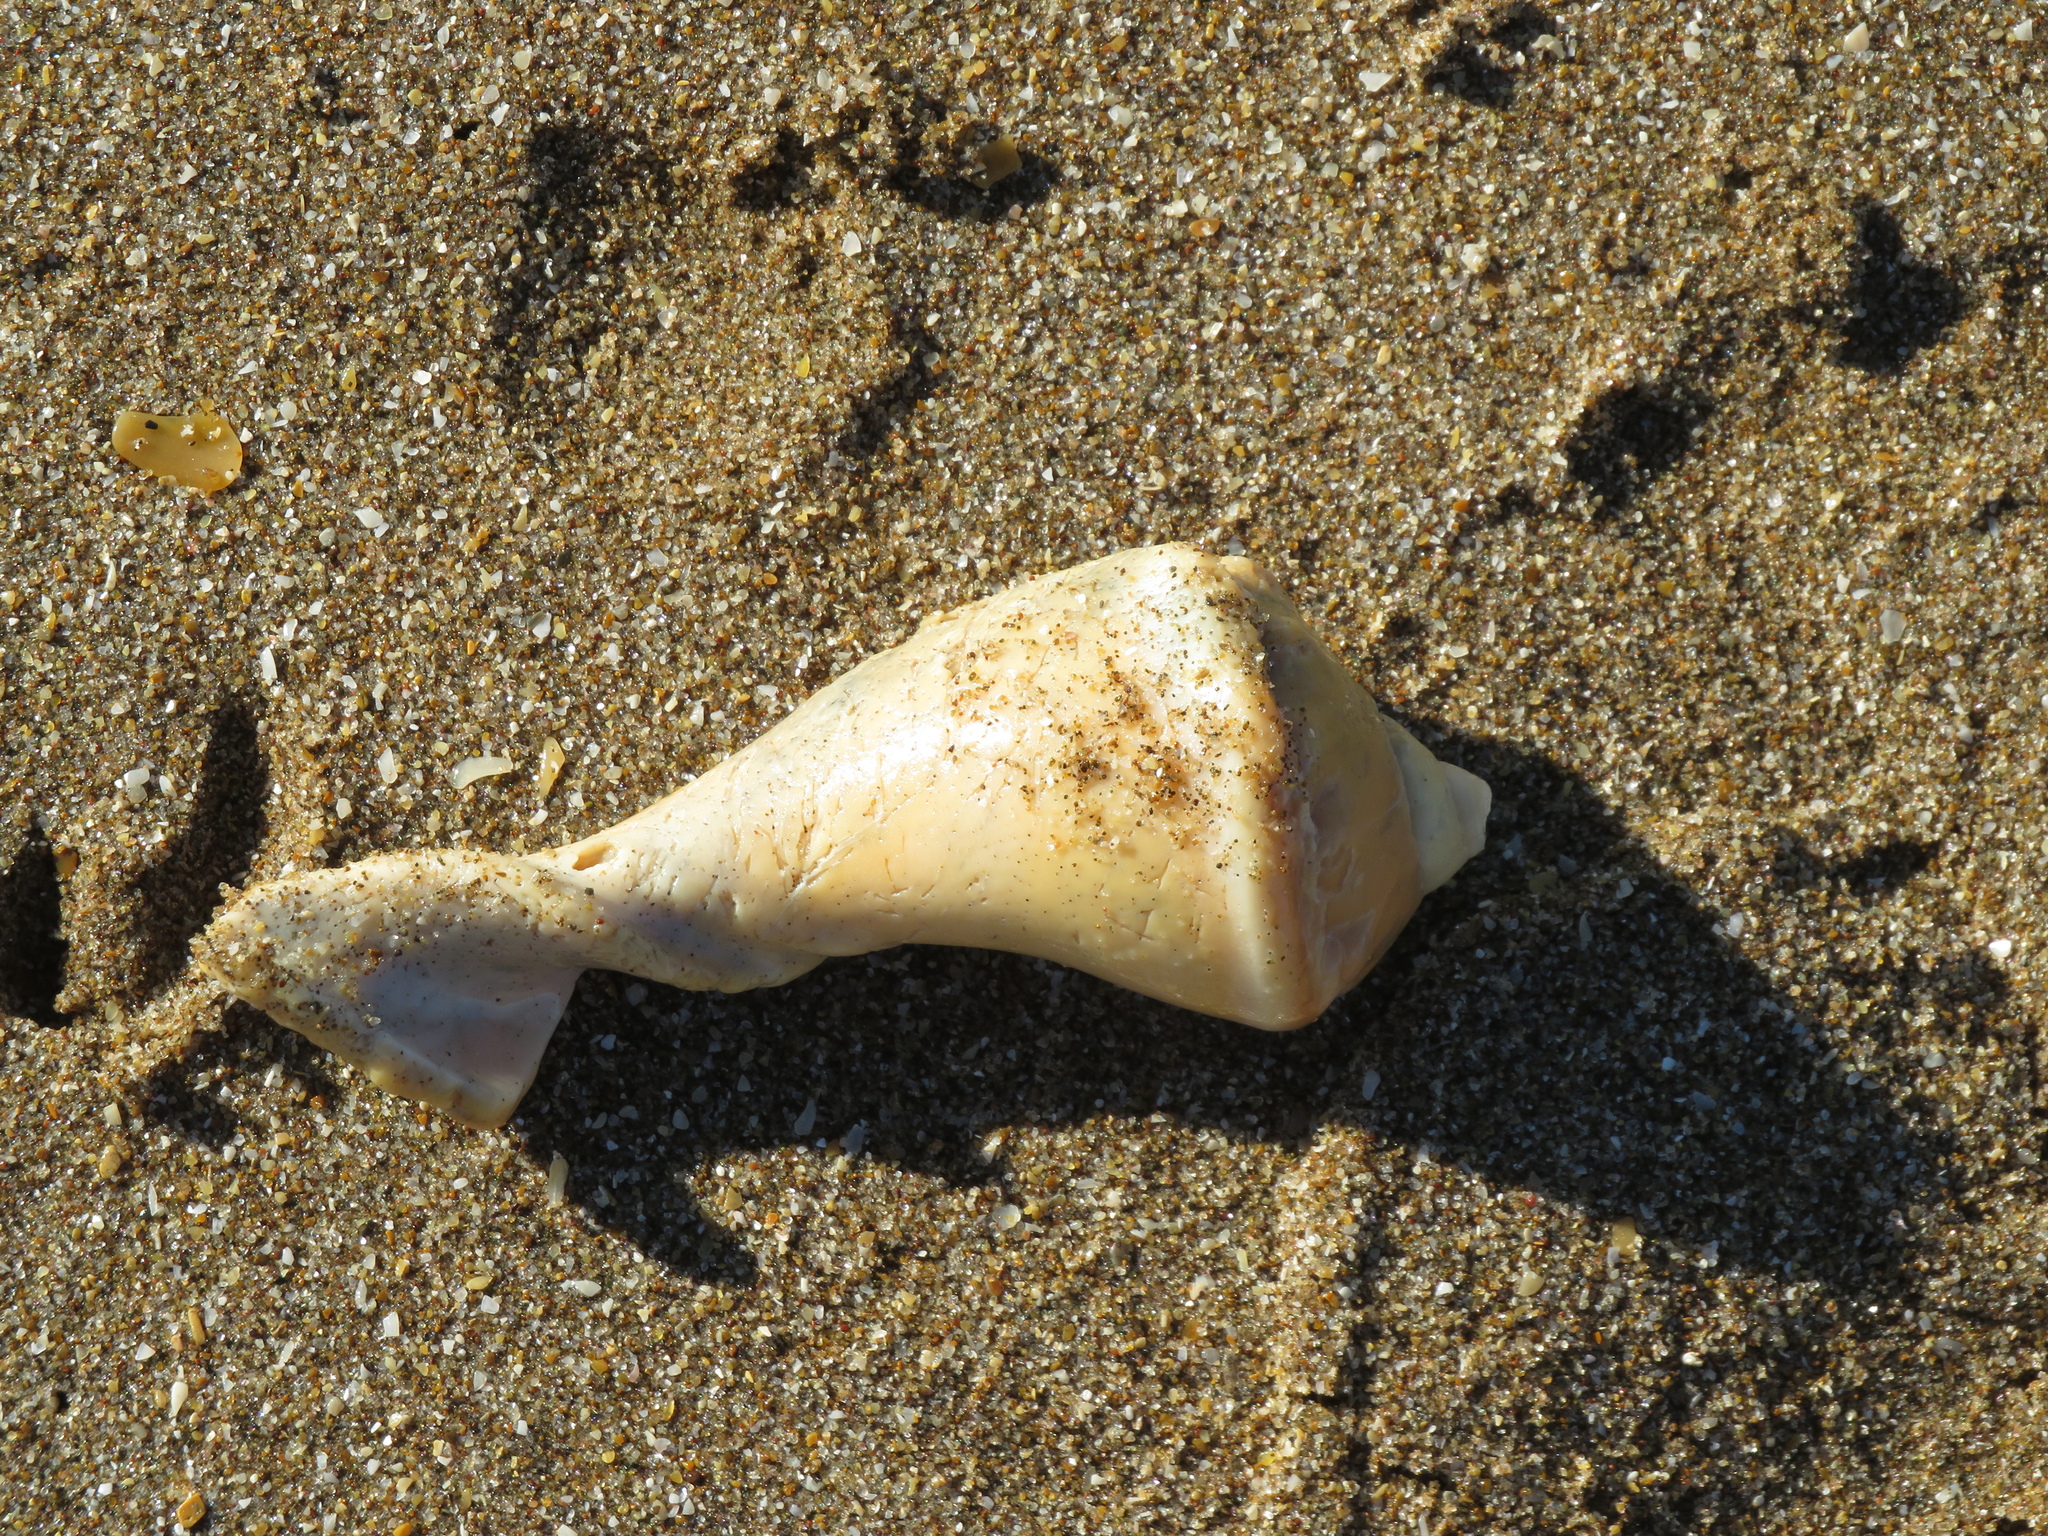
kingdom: Animalia
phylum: Mollusca
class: Gastropoda
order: Neogastropoda
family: Volutidae
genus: Pachycymbiola
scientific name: Pachycymbiola brasiliana
